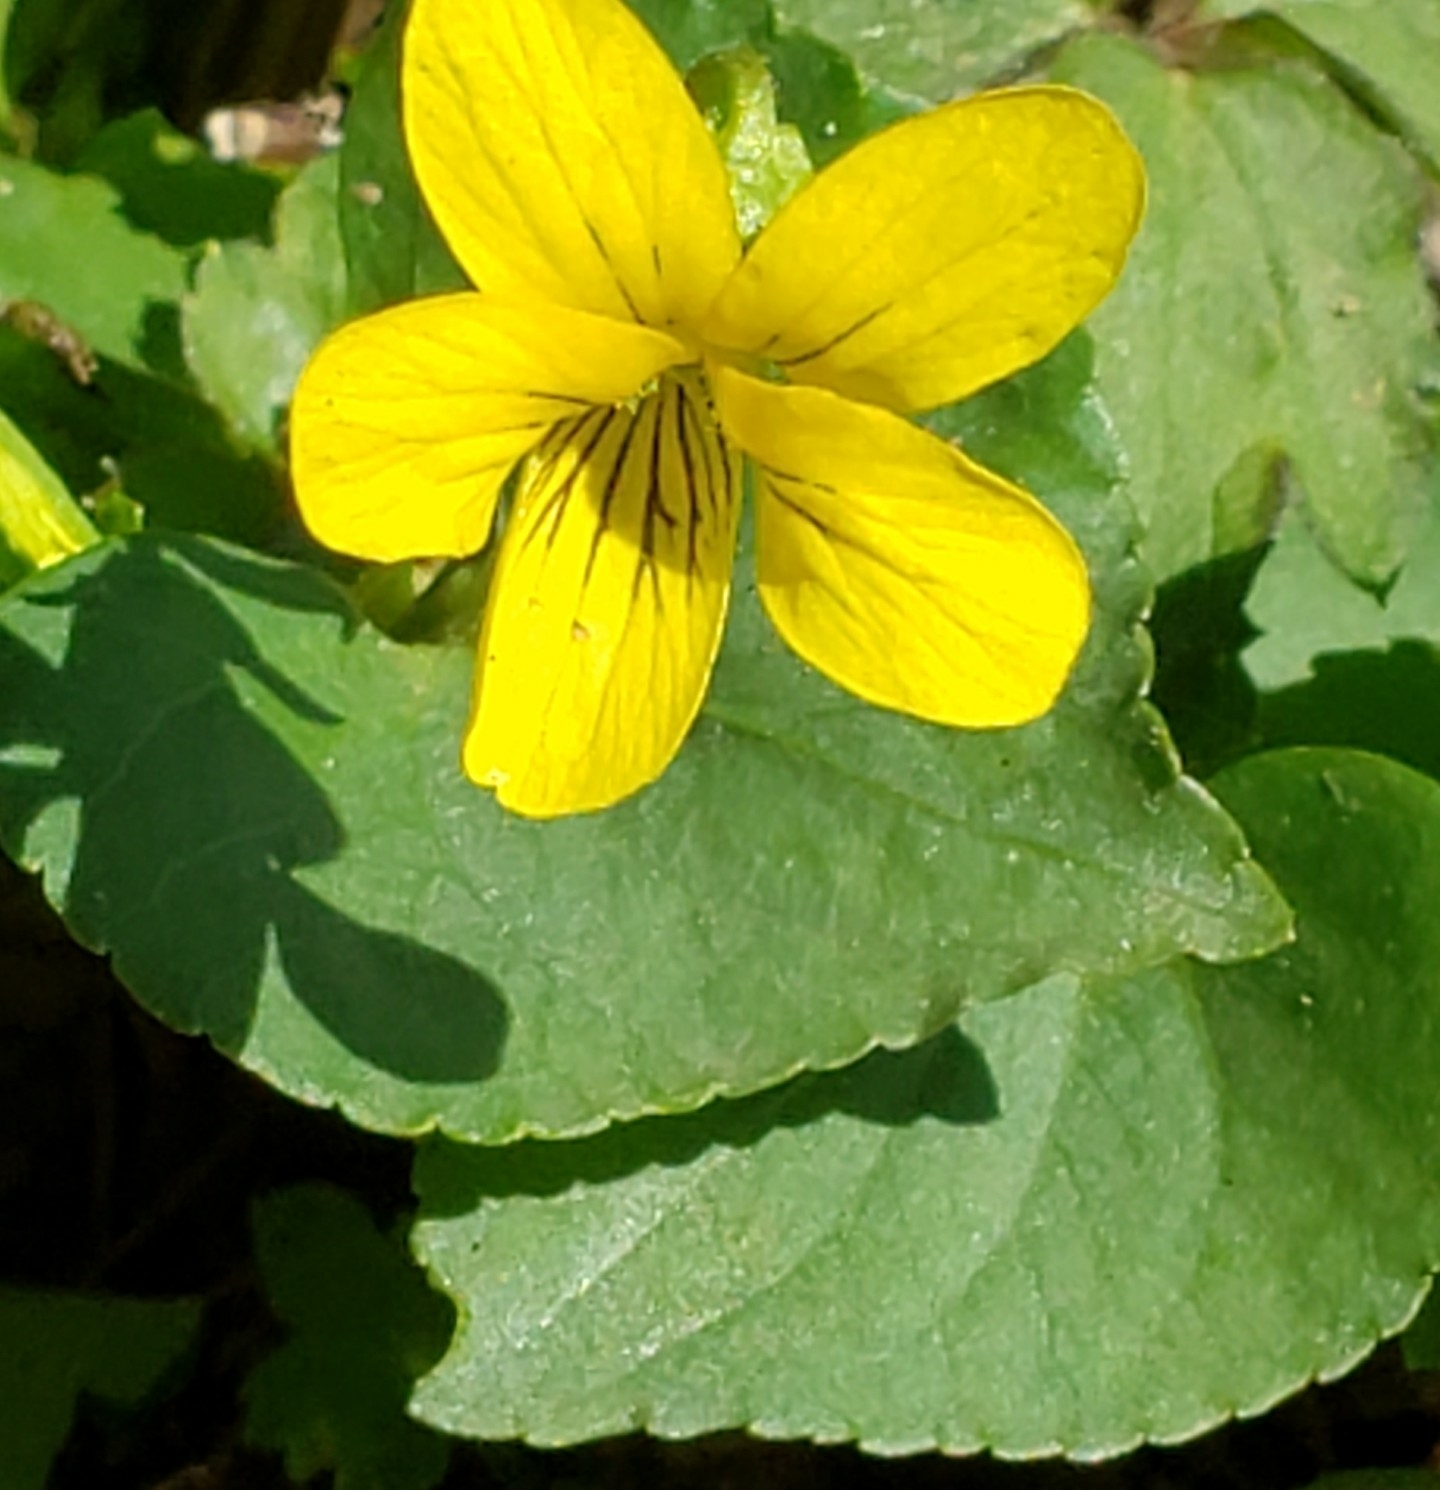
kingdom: Plantae
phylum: Tracheophyta
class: Magnoliopsida
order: Malpighiales
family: Violaceae
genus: Viola
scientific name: Viola eriocarpa
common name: Smooth yellow violet
